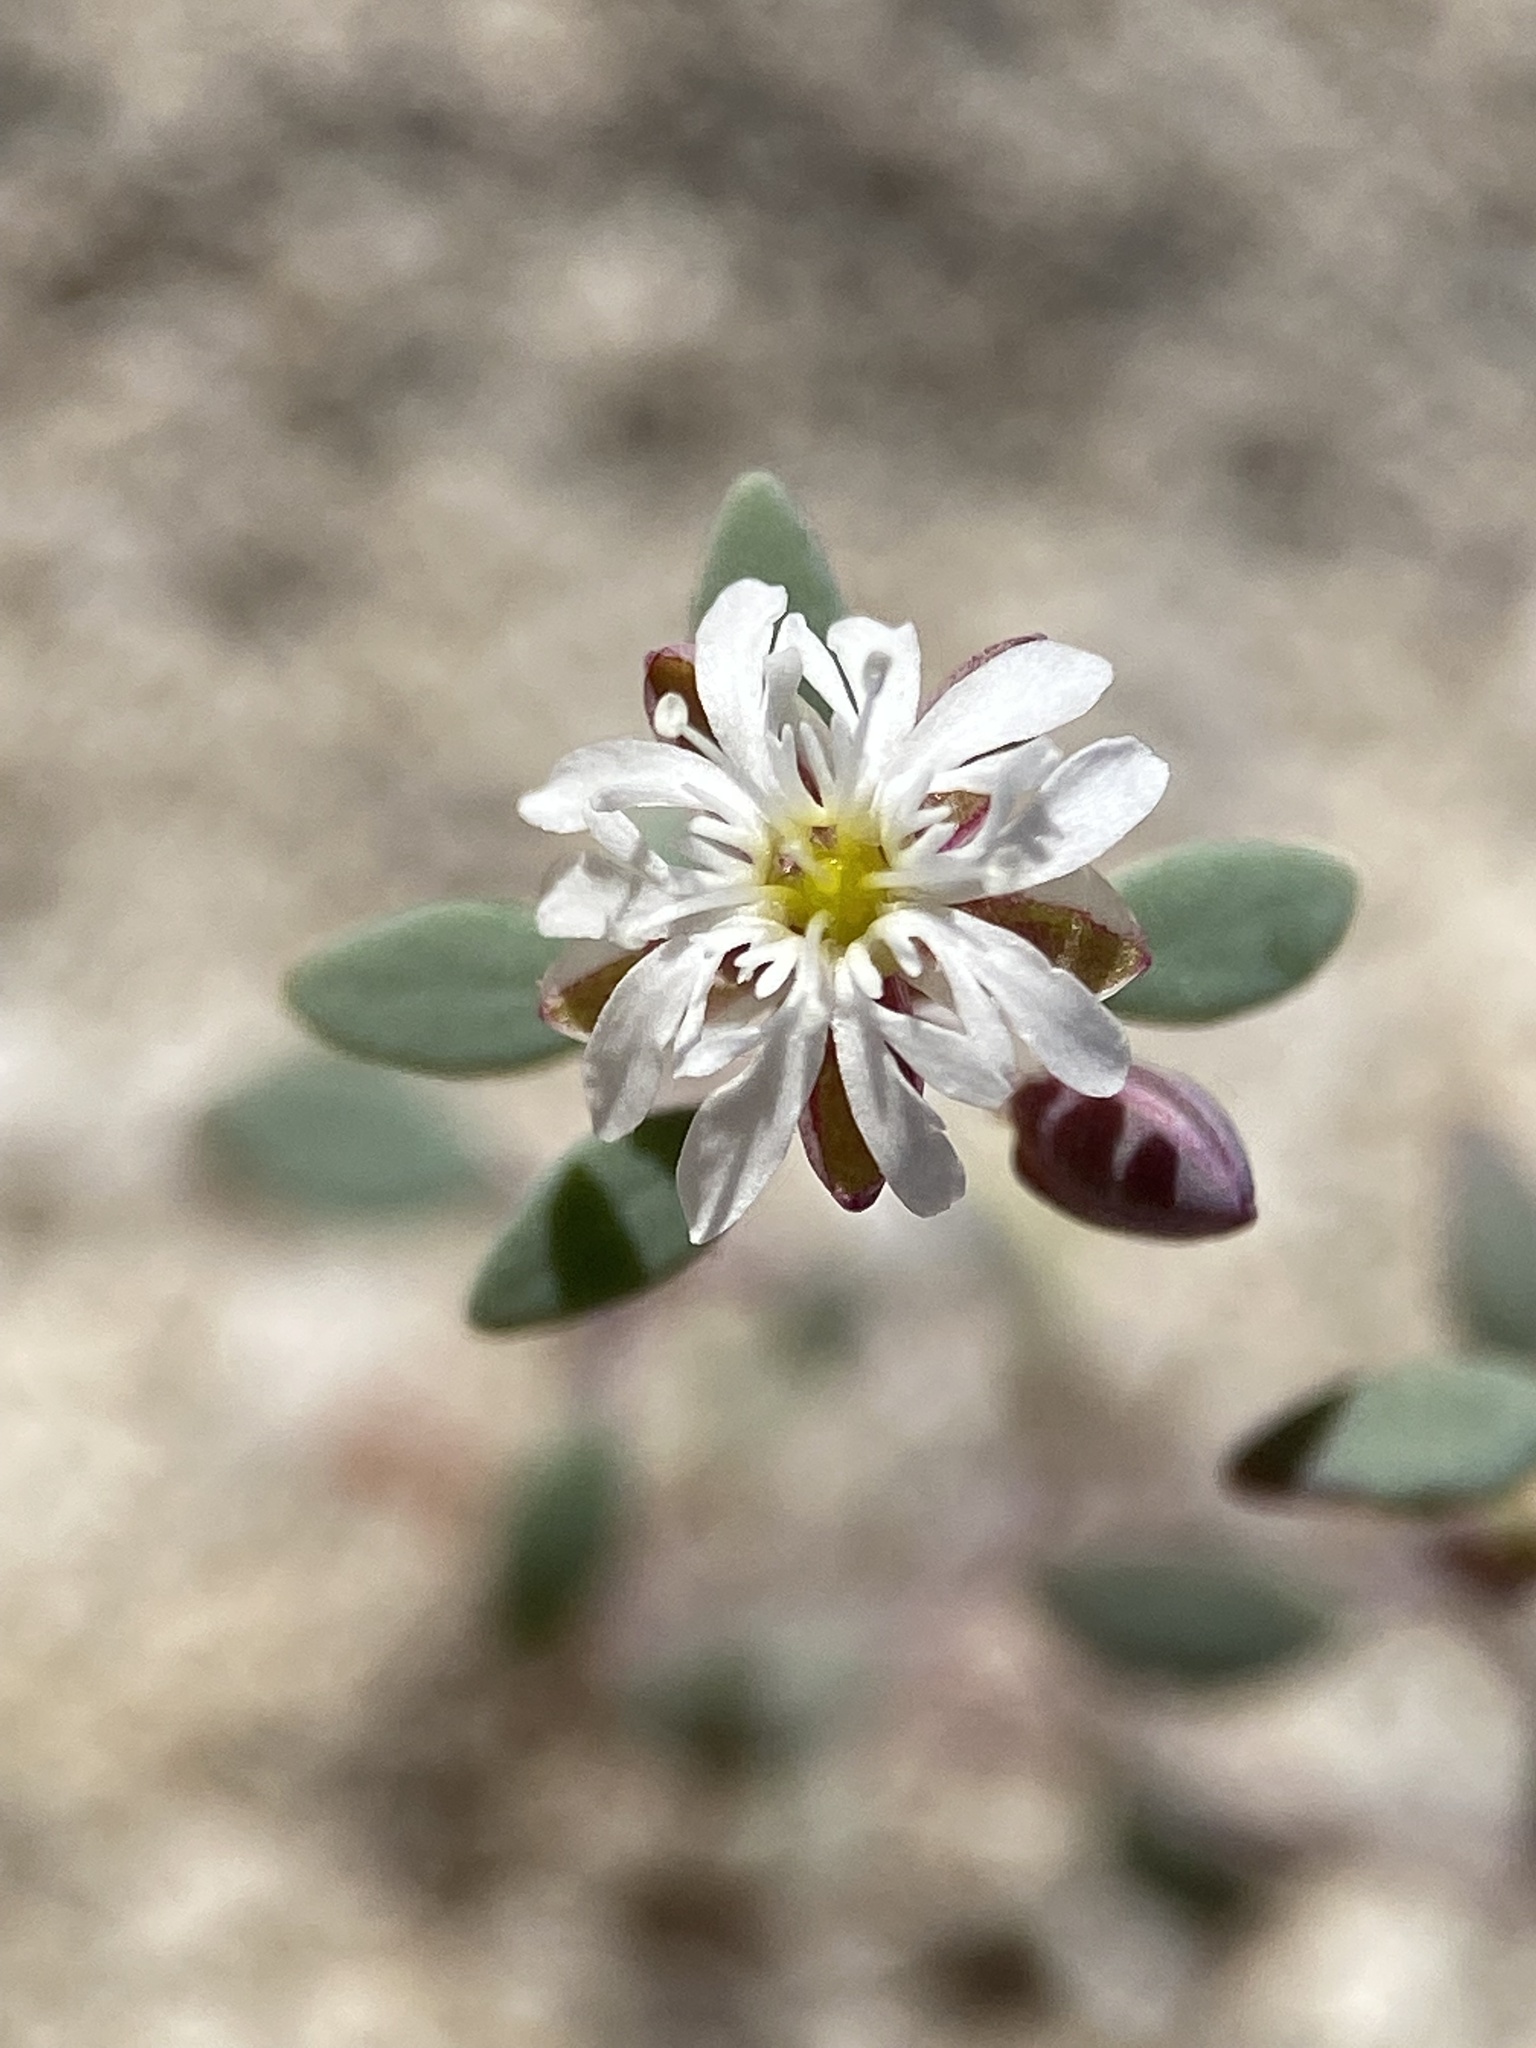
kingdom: Plantae
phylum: Tracheophyta
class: Magnoliopsida
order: Caryophyllales
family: Caryophyllaceae
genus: Drymaria
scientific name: Drymaria holosteoides
